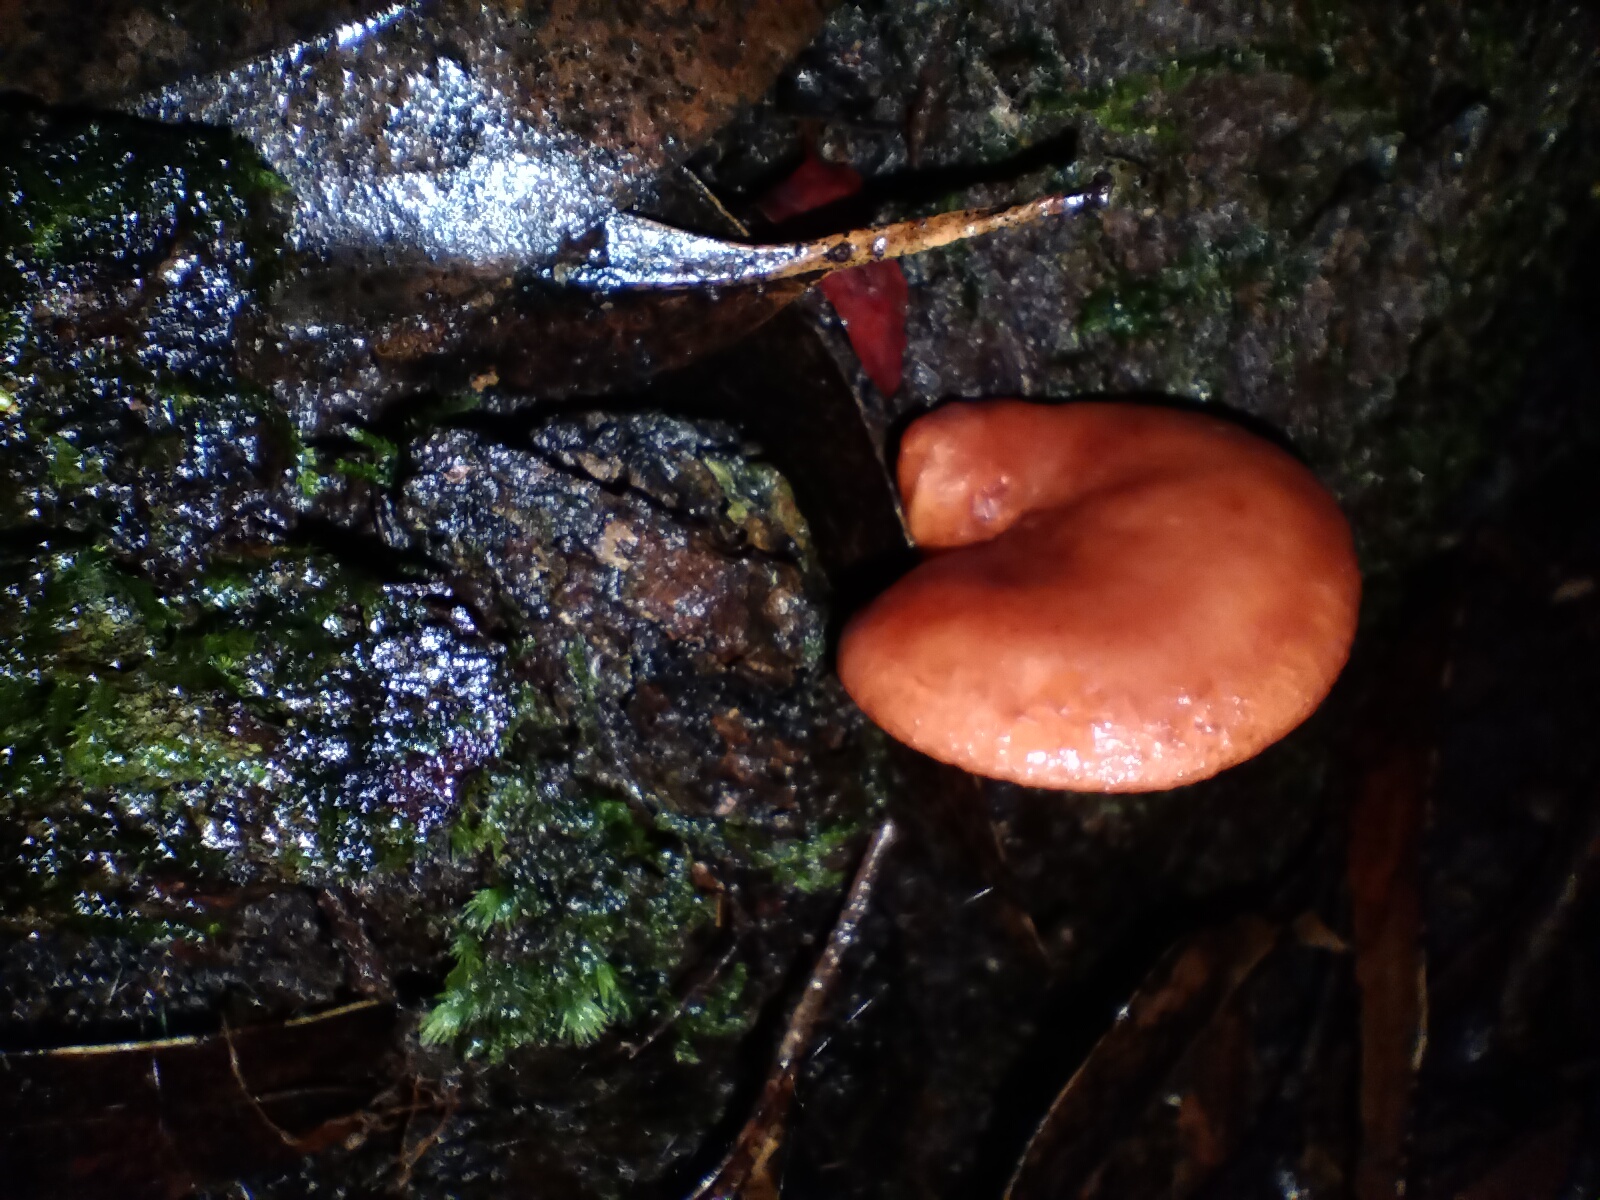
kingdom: Fungi
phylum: Basidiomycota
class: Agaricomycetes
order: Russulales
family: Russulaceae
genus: Lactarius
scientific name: Lactarius eucalypti
